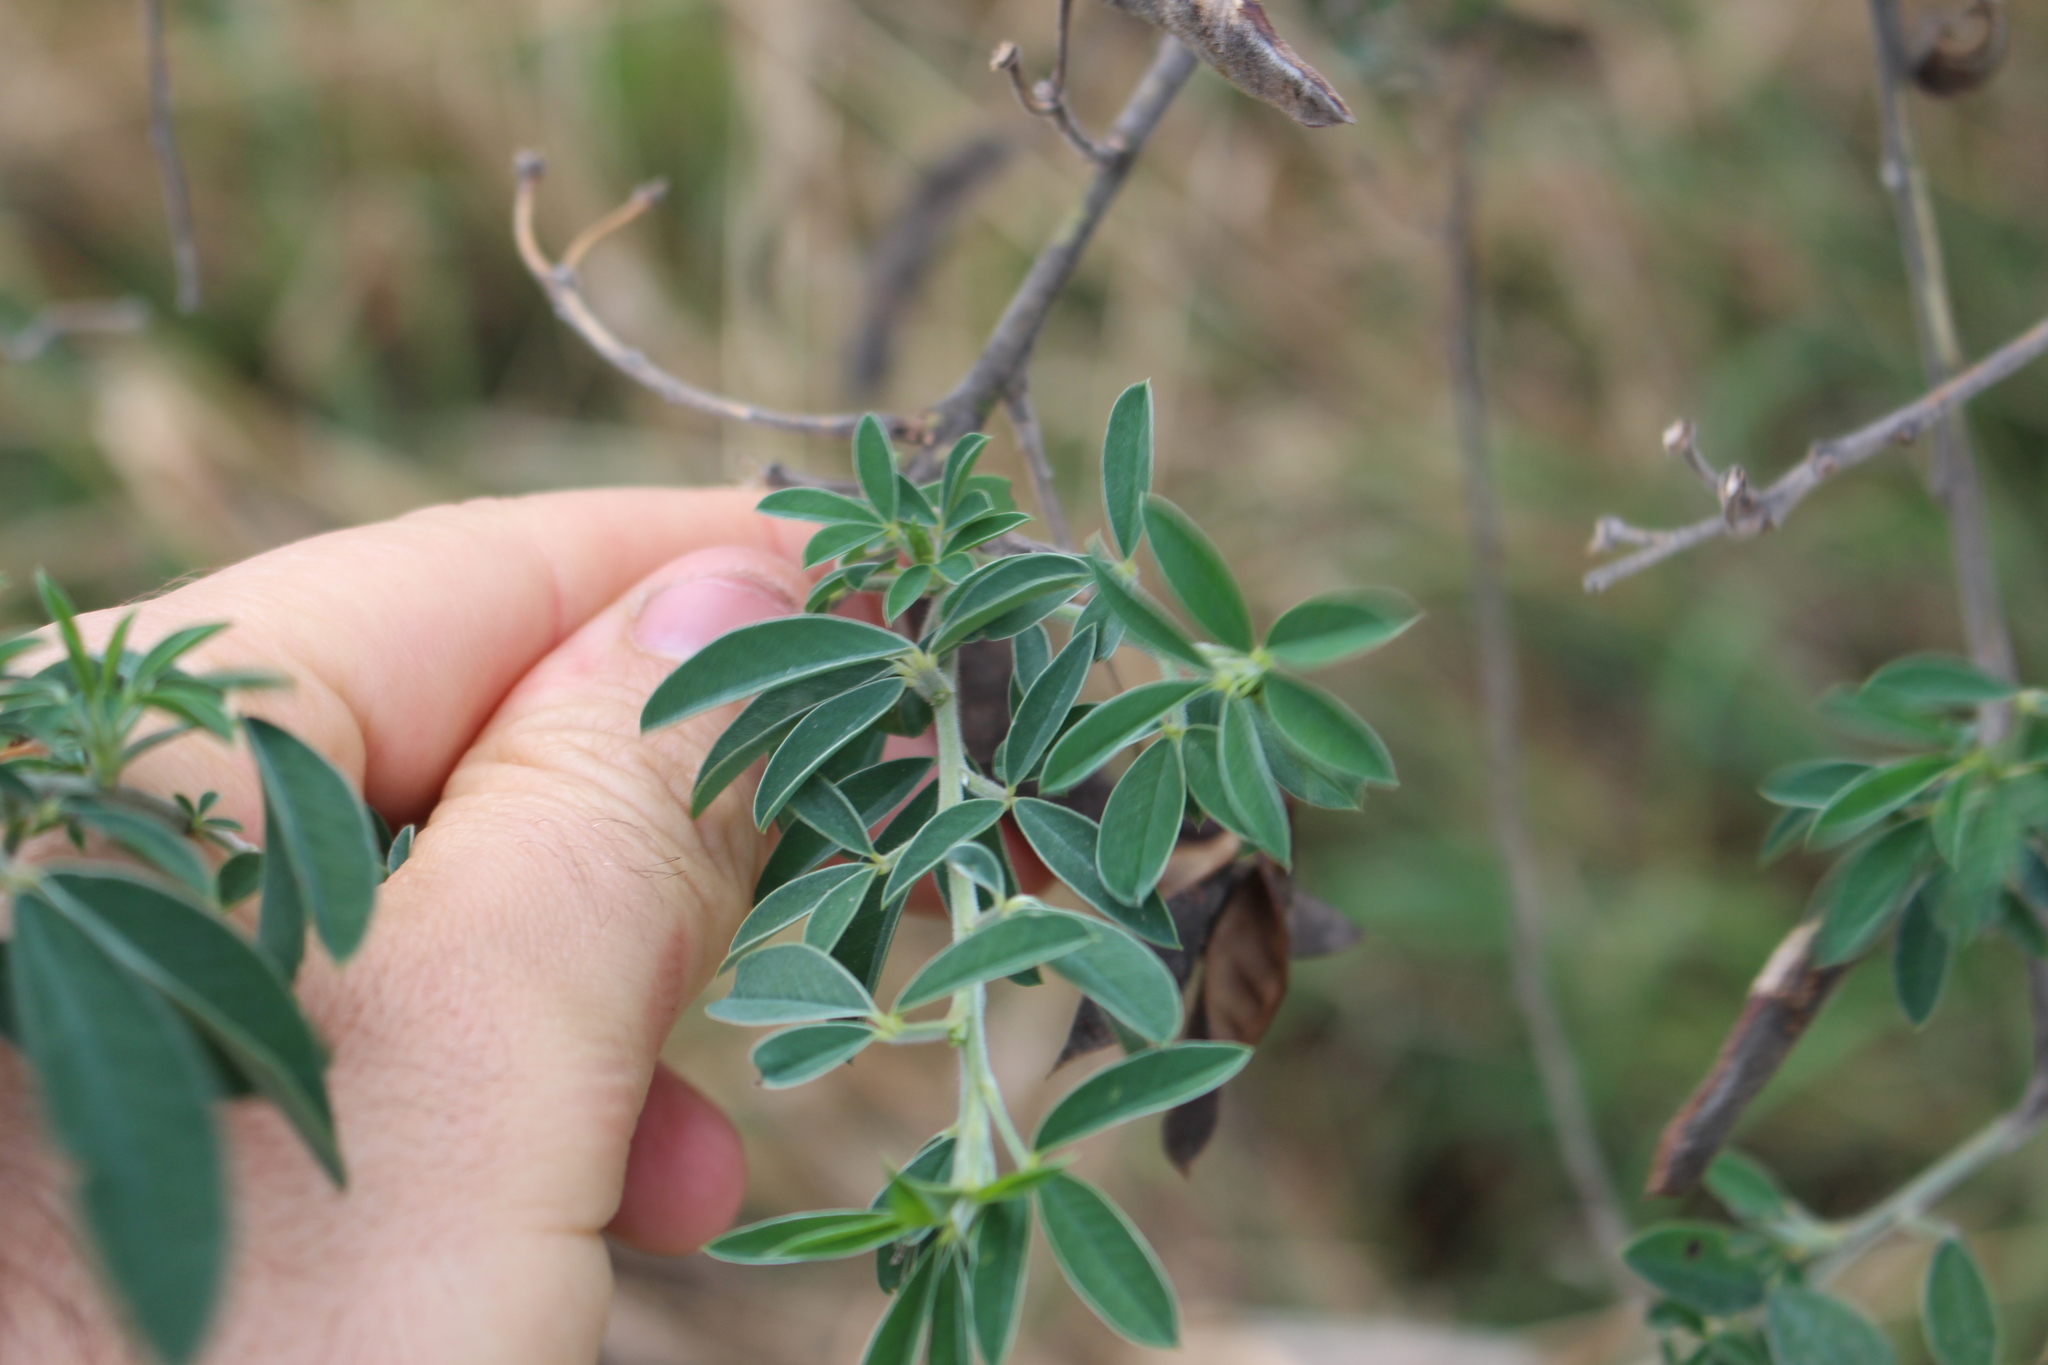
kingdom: Plantae
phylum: Tracheophyta
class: Magnoliopsida
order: Fabales
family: Fabaceae
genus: Chamaecytisus
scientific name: Chamaecytisus prolifer
